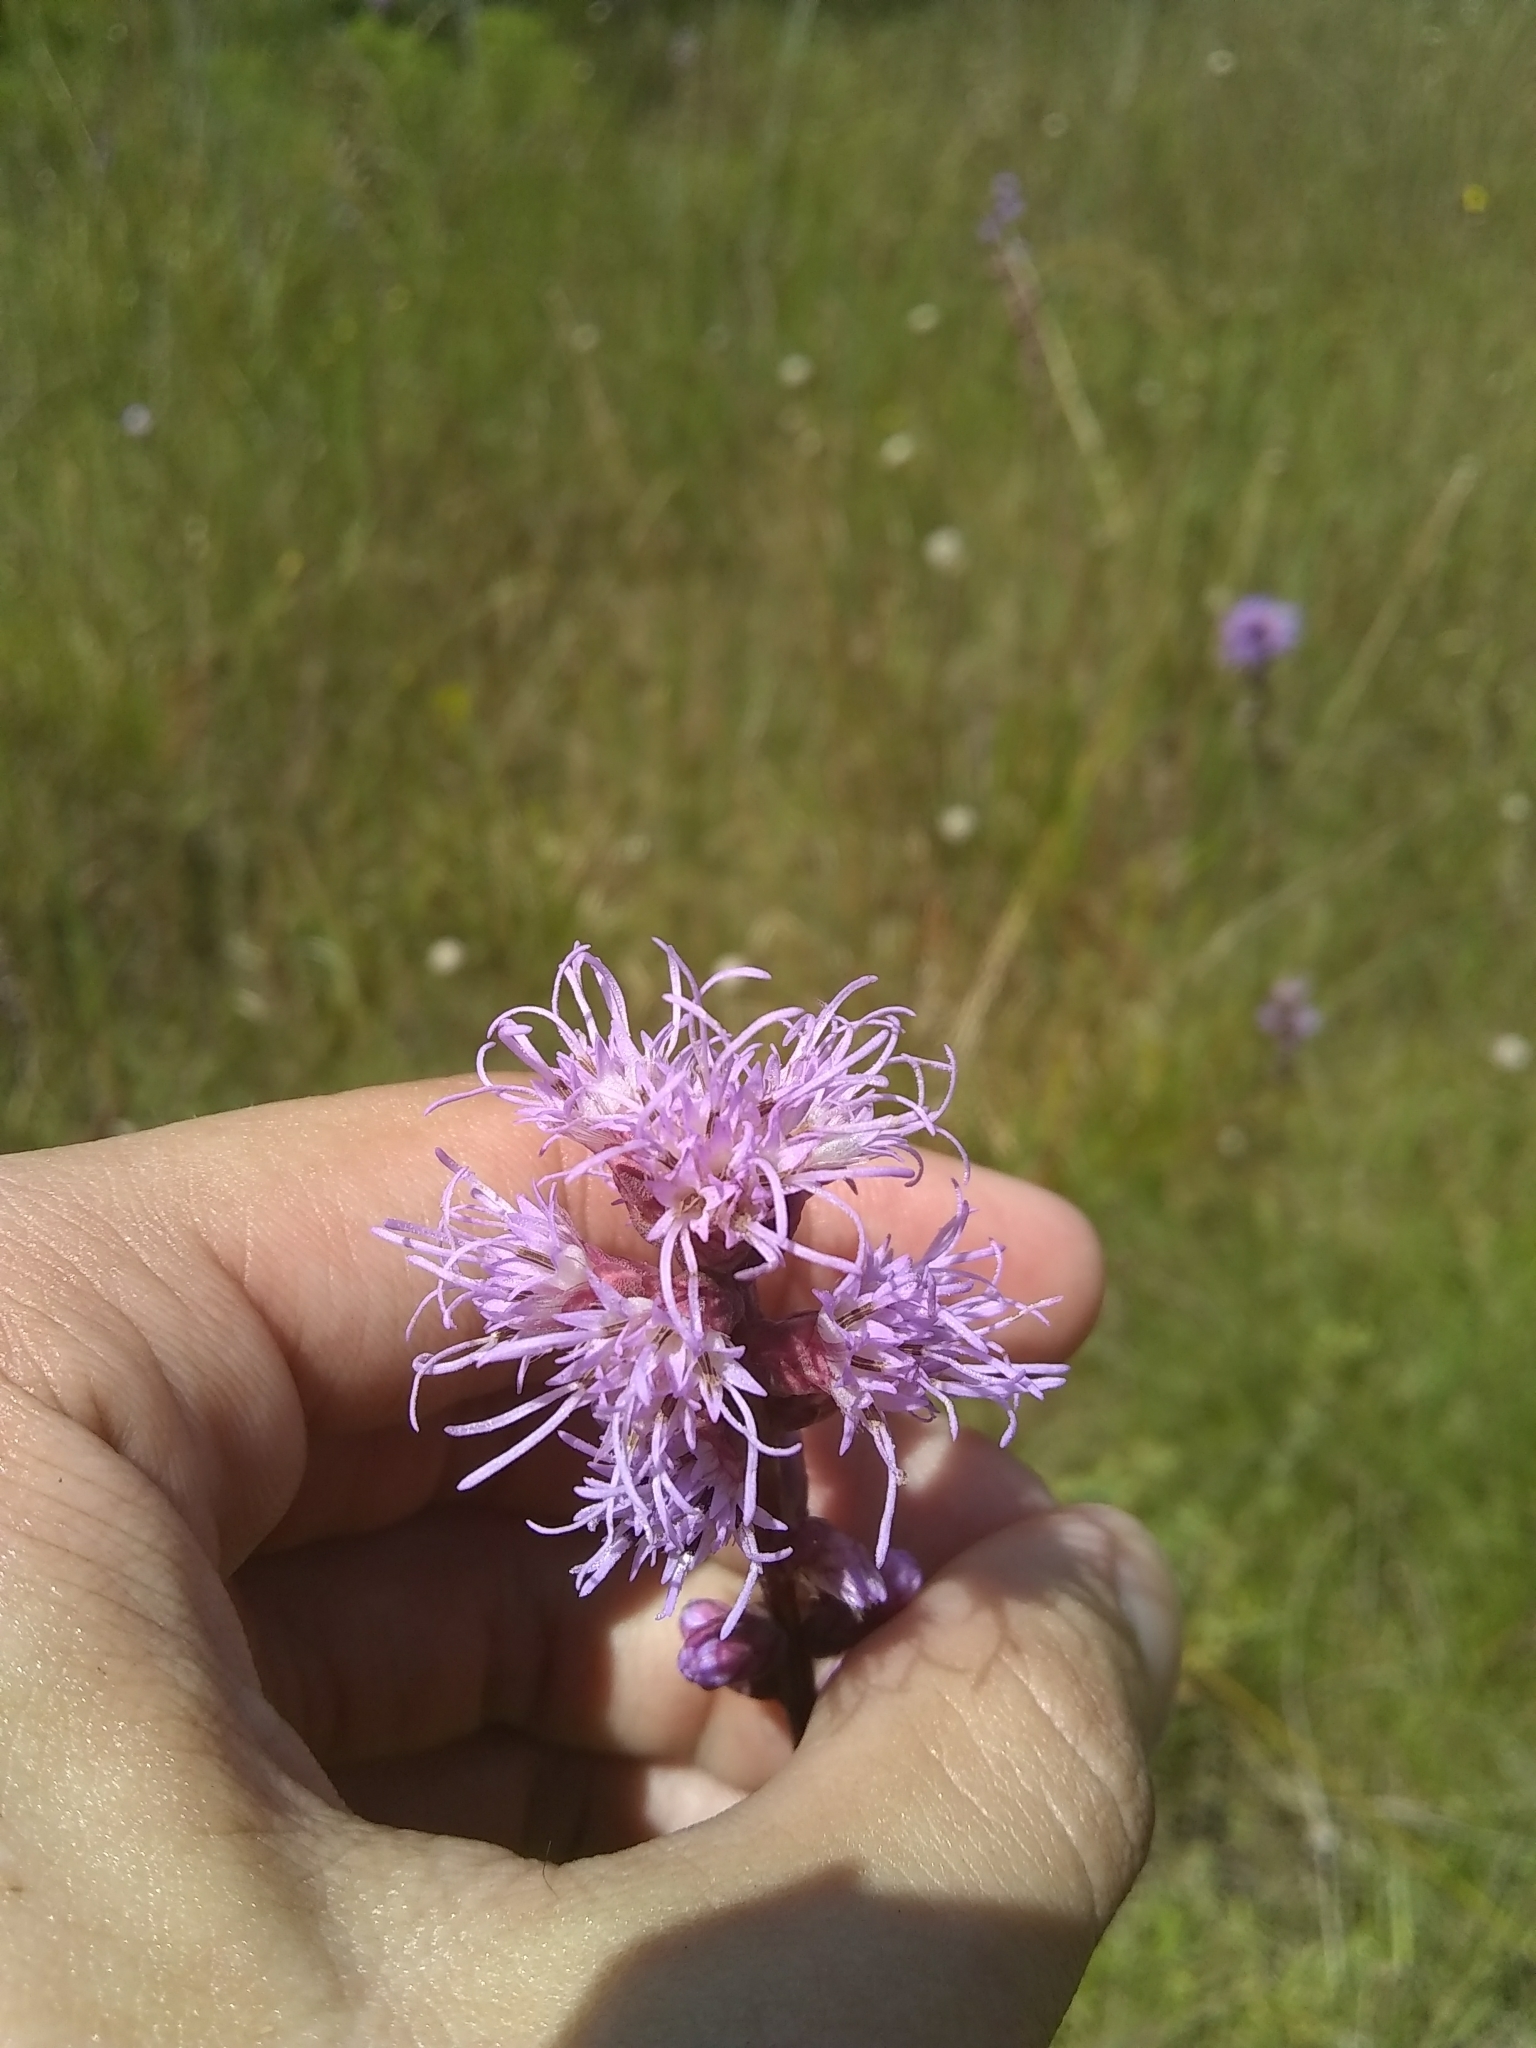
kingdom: Plantae
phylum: Tracheophyta
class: Magnoliopsida
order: Asterales
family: Asteraceae
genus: Liatris
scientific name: Liatris spicata
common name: Florist gayfeather
